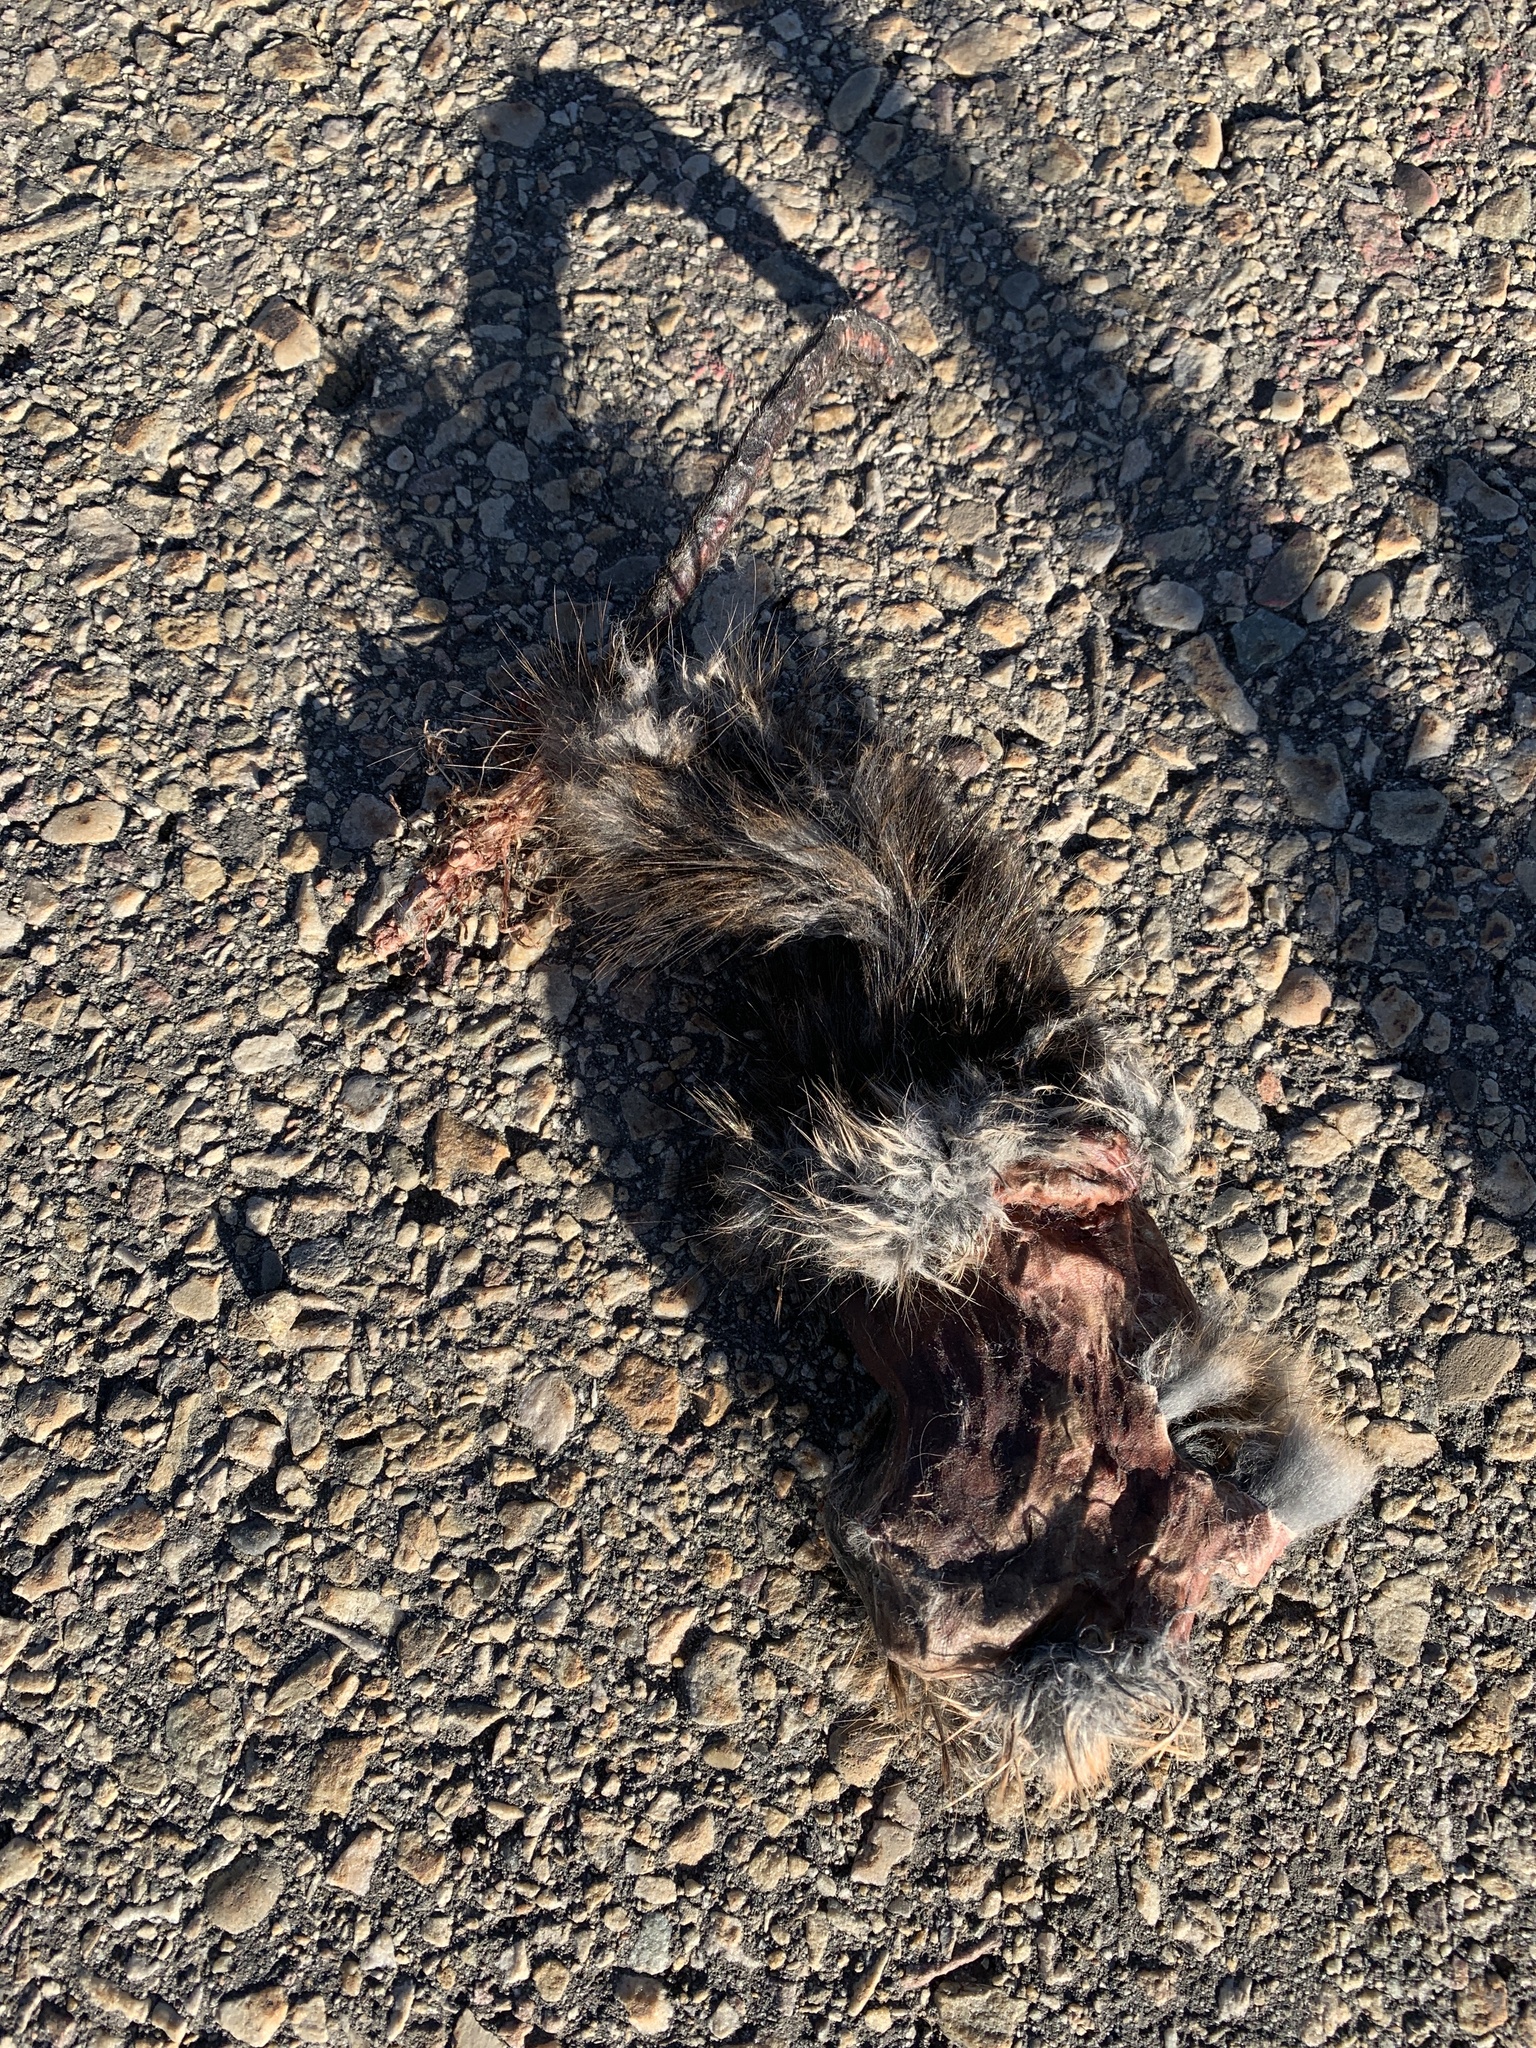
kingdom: Animalia
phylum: Chordata
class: Mammalia
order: Rodentia
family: Cricetidae
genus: Ondatra
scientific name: Ondatra zibethicus
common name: Muskrat
